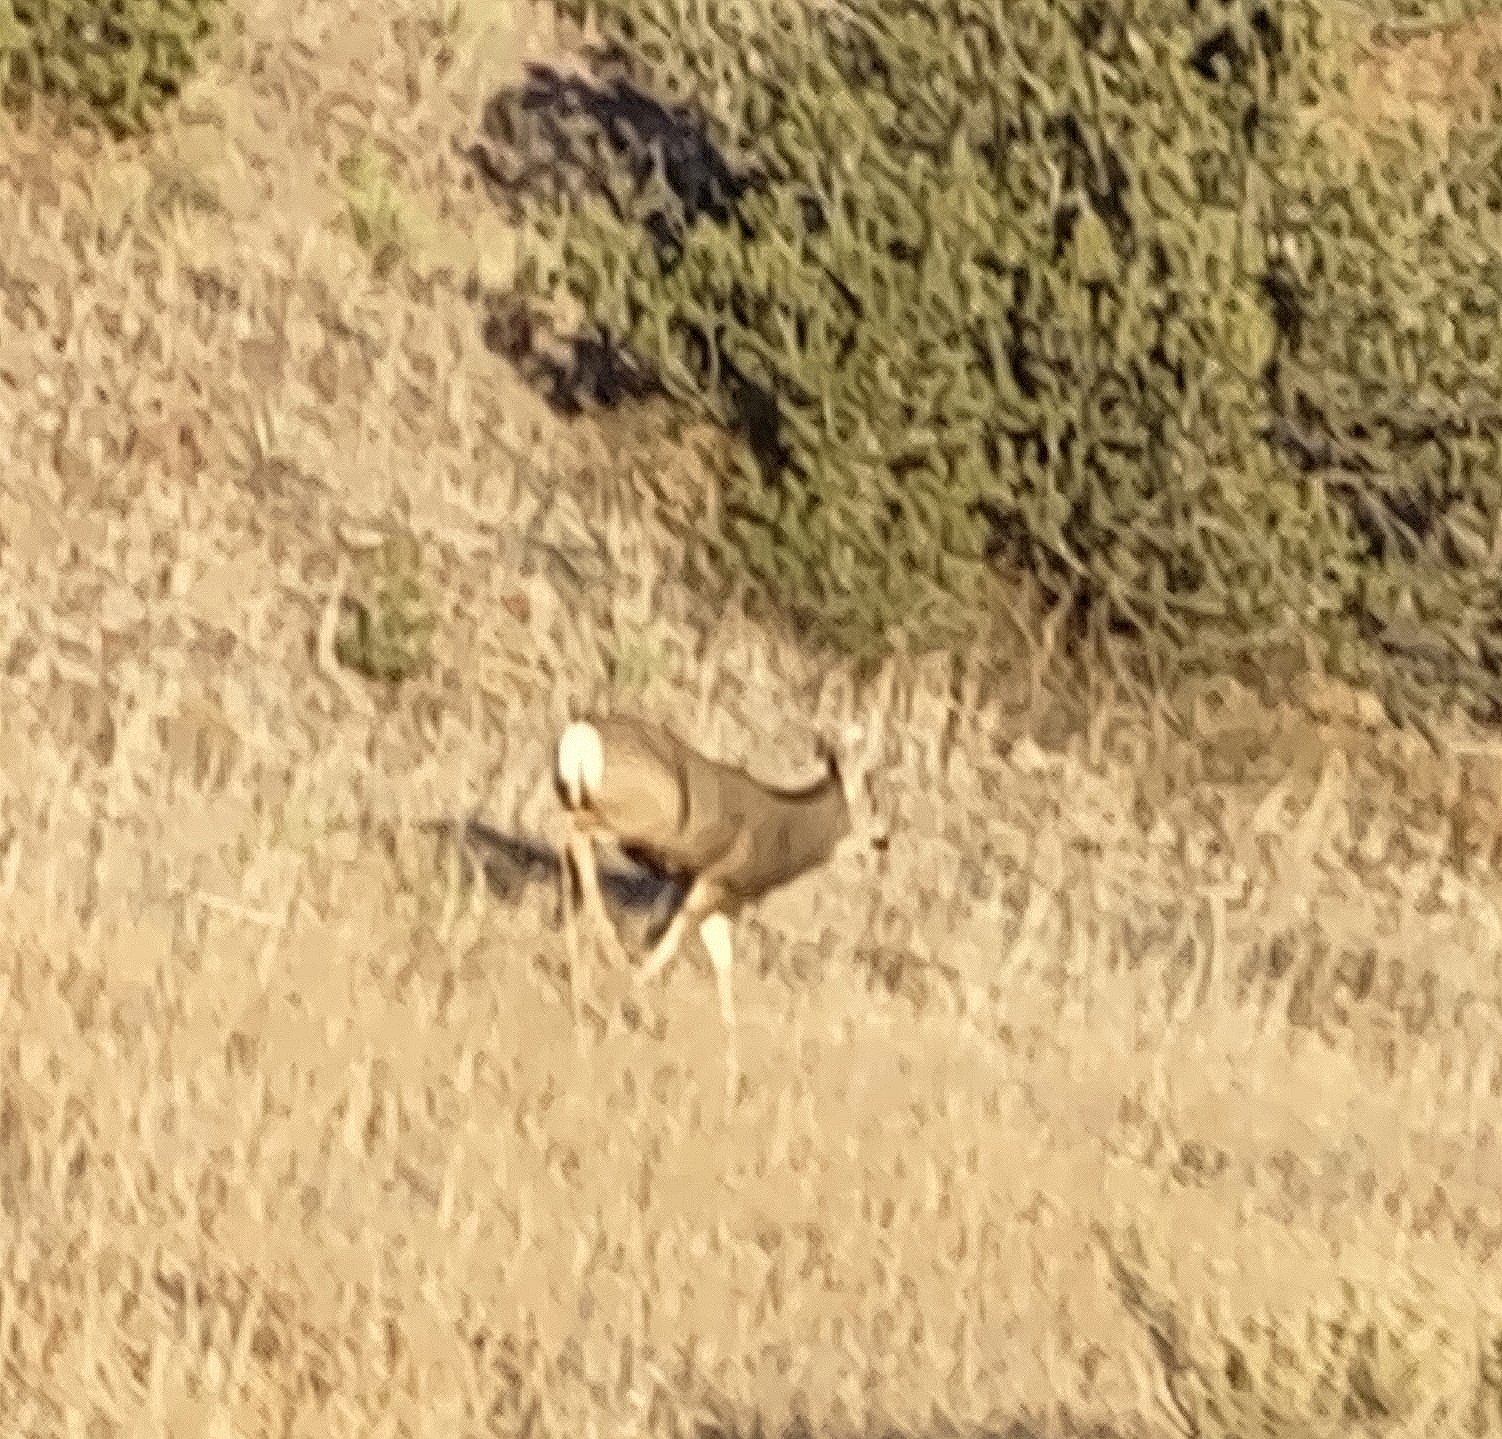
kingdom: Animalia
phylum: Chordata
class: Mammalia
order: Artiodactyla
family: Cervidae
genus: Odocoileus
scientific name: Odocoileus hemionus
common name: Mule deer
